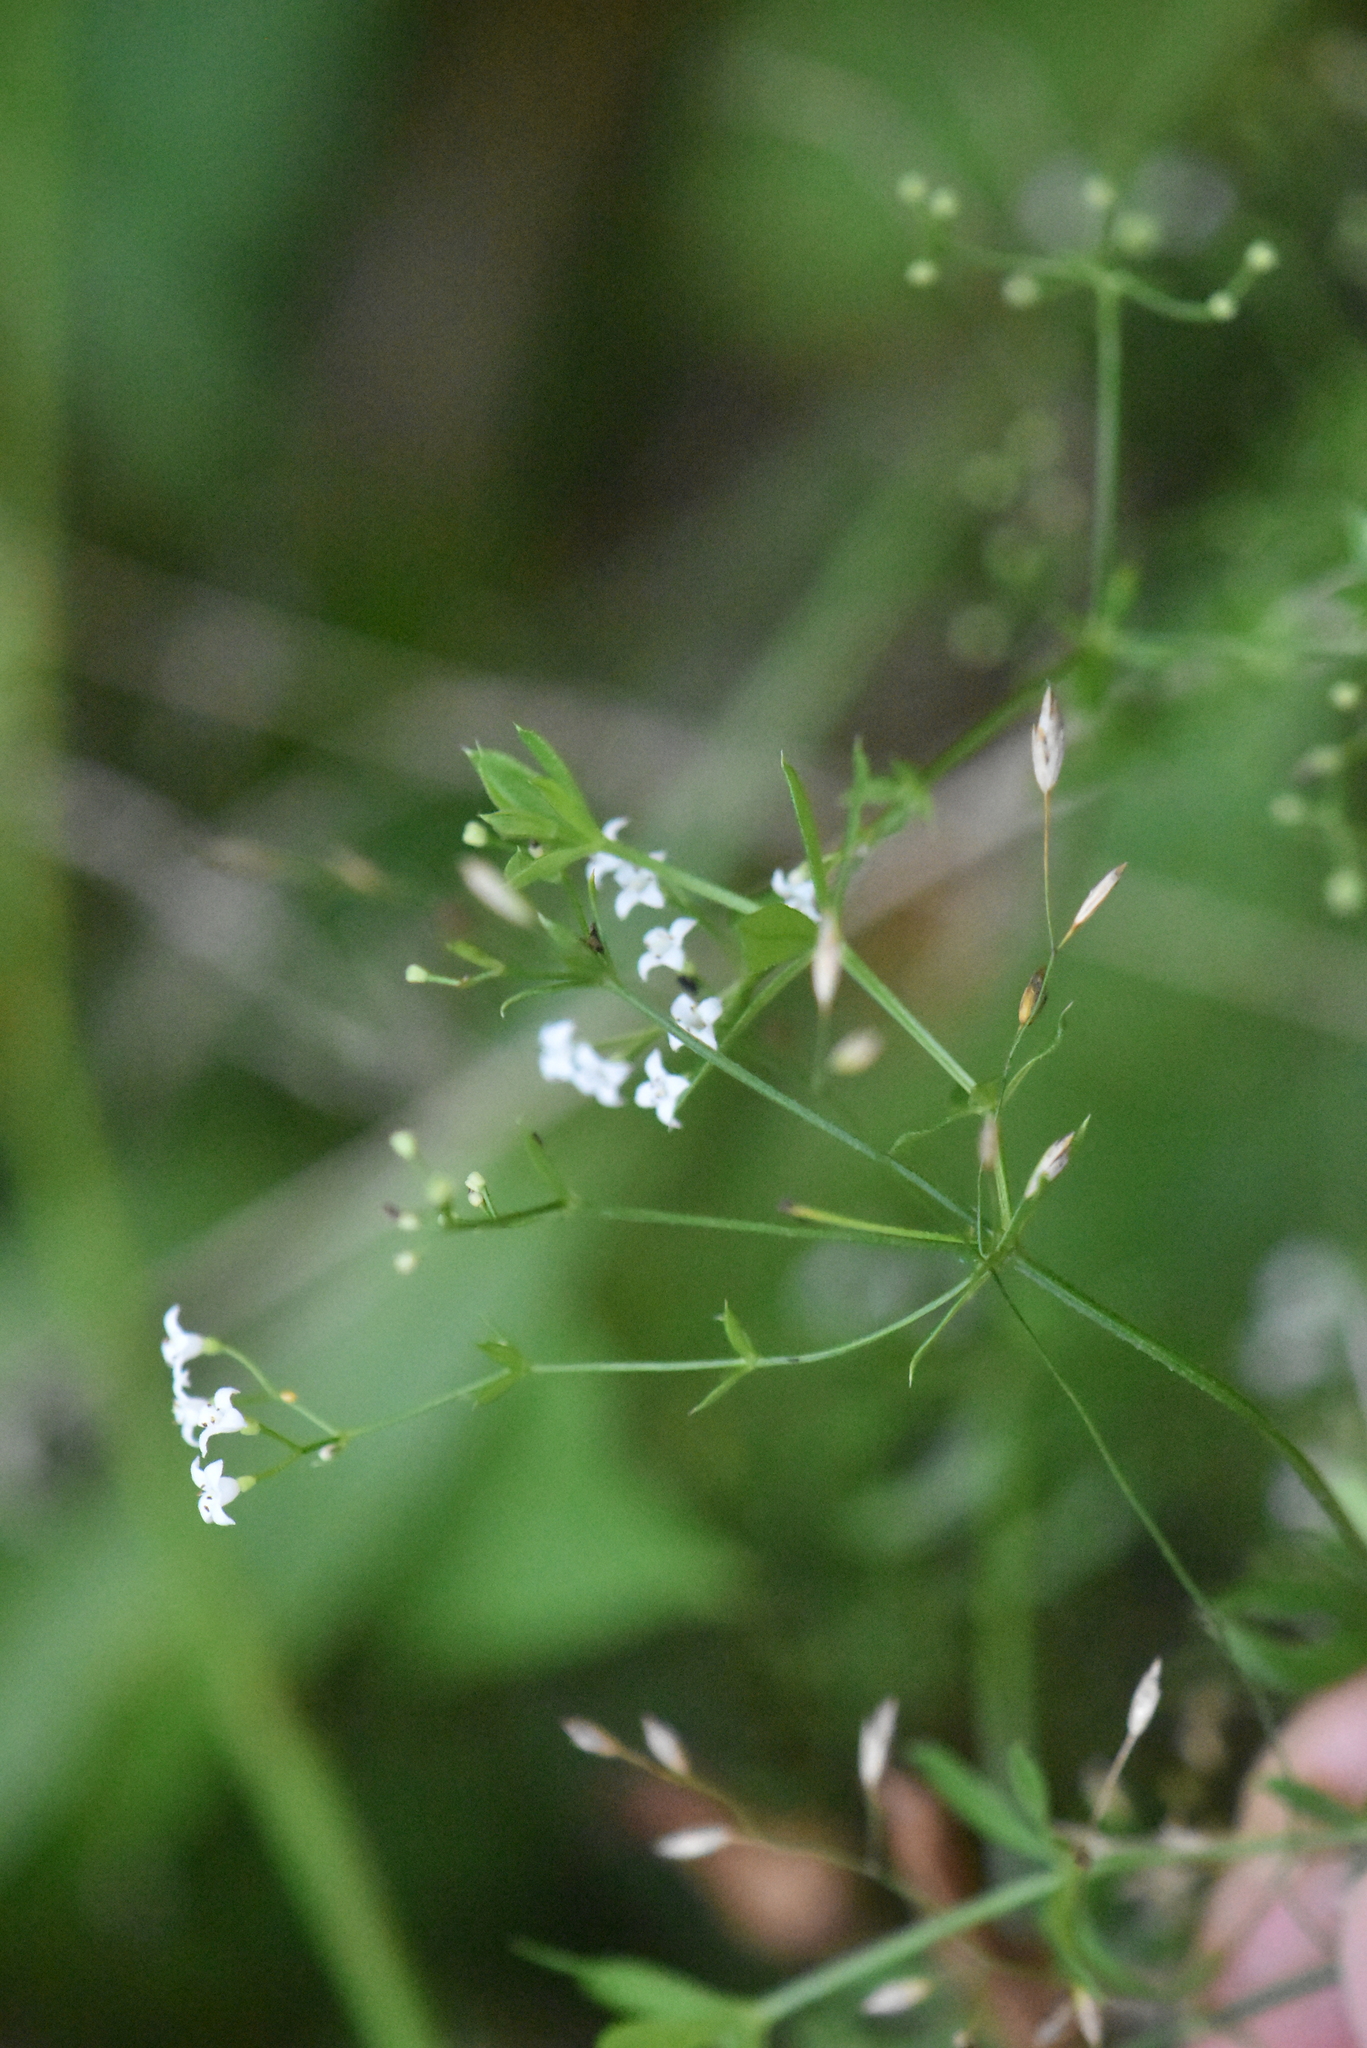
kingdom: Plantae
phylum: Tracheophyta
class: Magnoliopsida
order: Gentianales
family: Rubiaceae
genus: Galium
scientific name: Galium uliginosum
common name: Fen bedstraw
